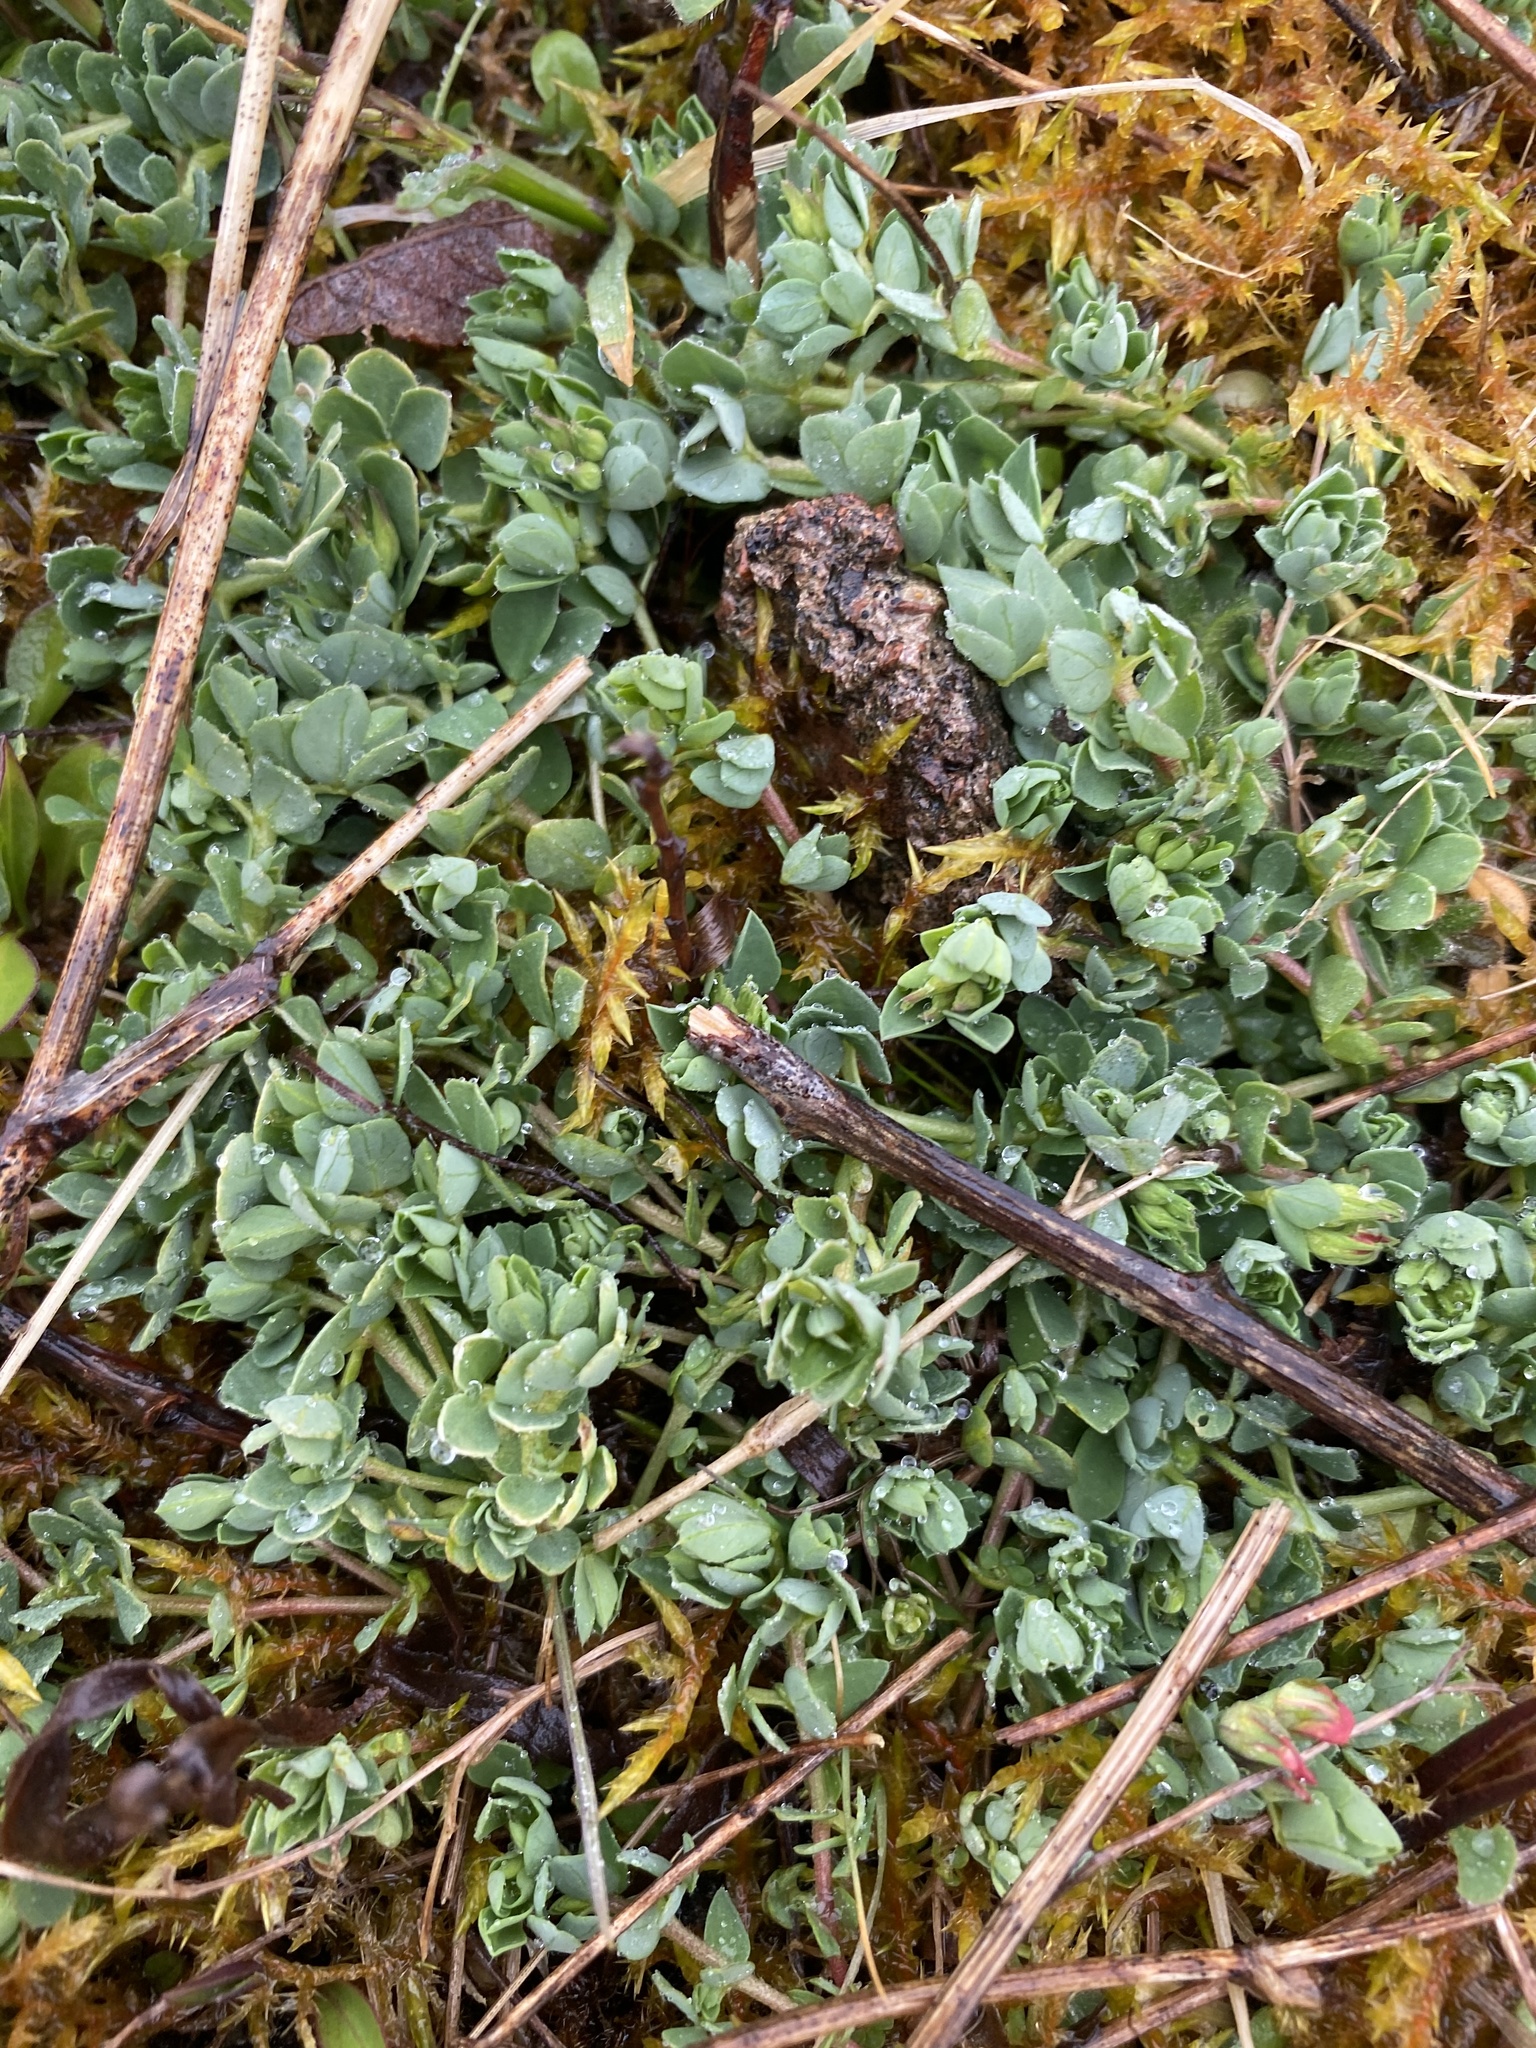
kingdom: Plantae
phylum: Tracheophyta
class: Magnoliopsida
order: Fabales
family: Fabaceae
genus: Lotus
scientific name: Lotus corniculatus
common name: Common bird's-foot-trefoil
